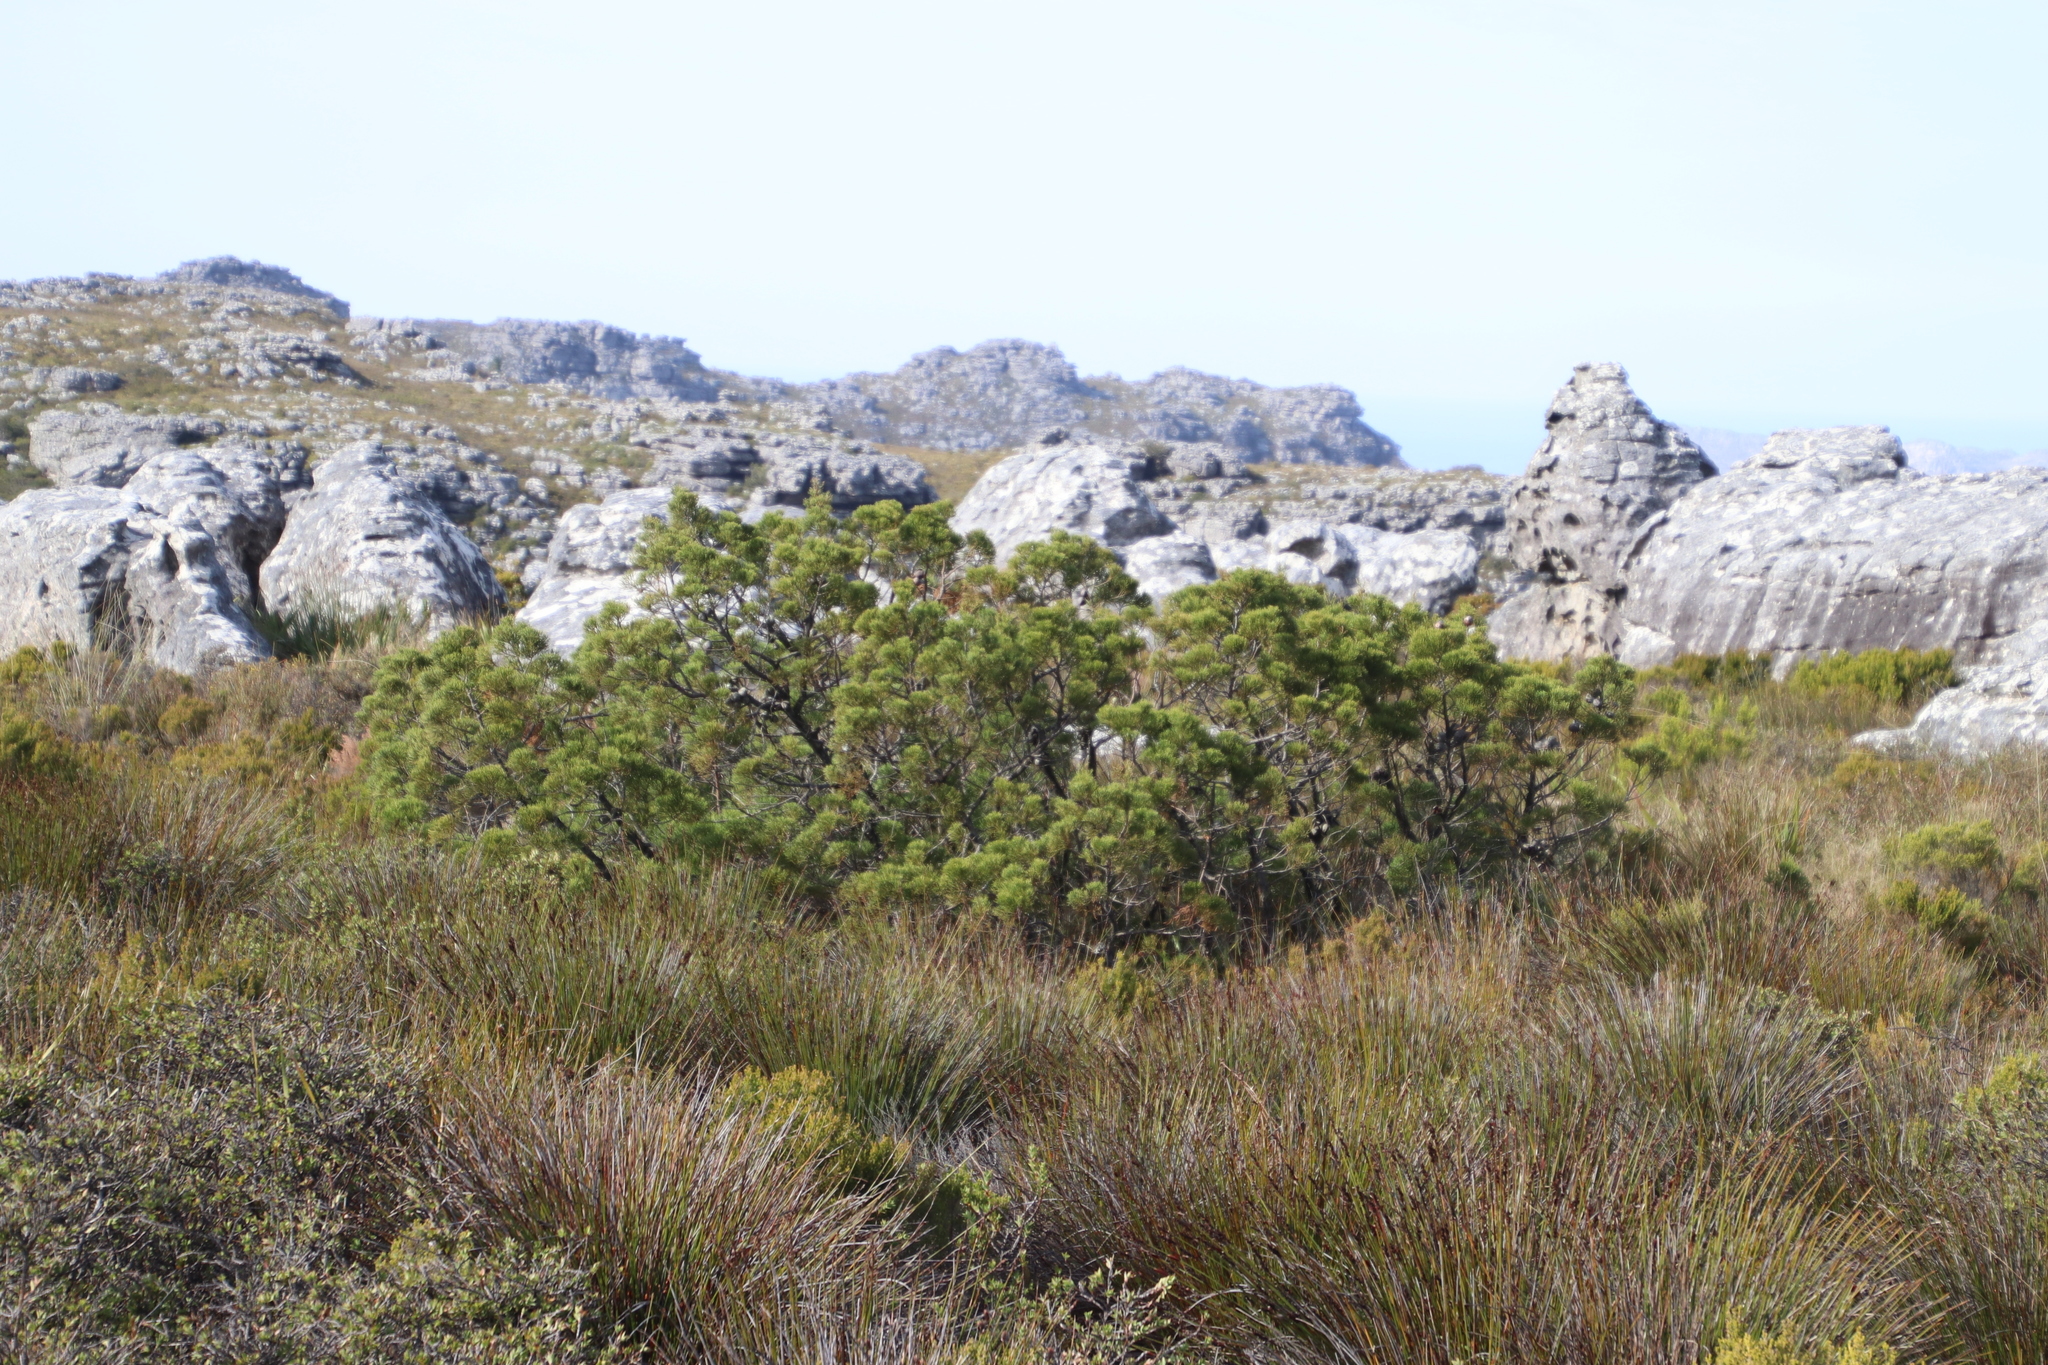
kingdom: Plantae
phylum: Tracheophyta
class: Pinopsida
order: Pinales
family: Cupressaceae
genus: Widdringtonia
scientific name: Widdringtonia nodiflora
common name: Cape cypress
